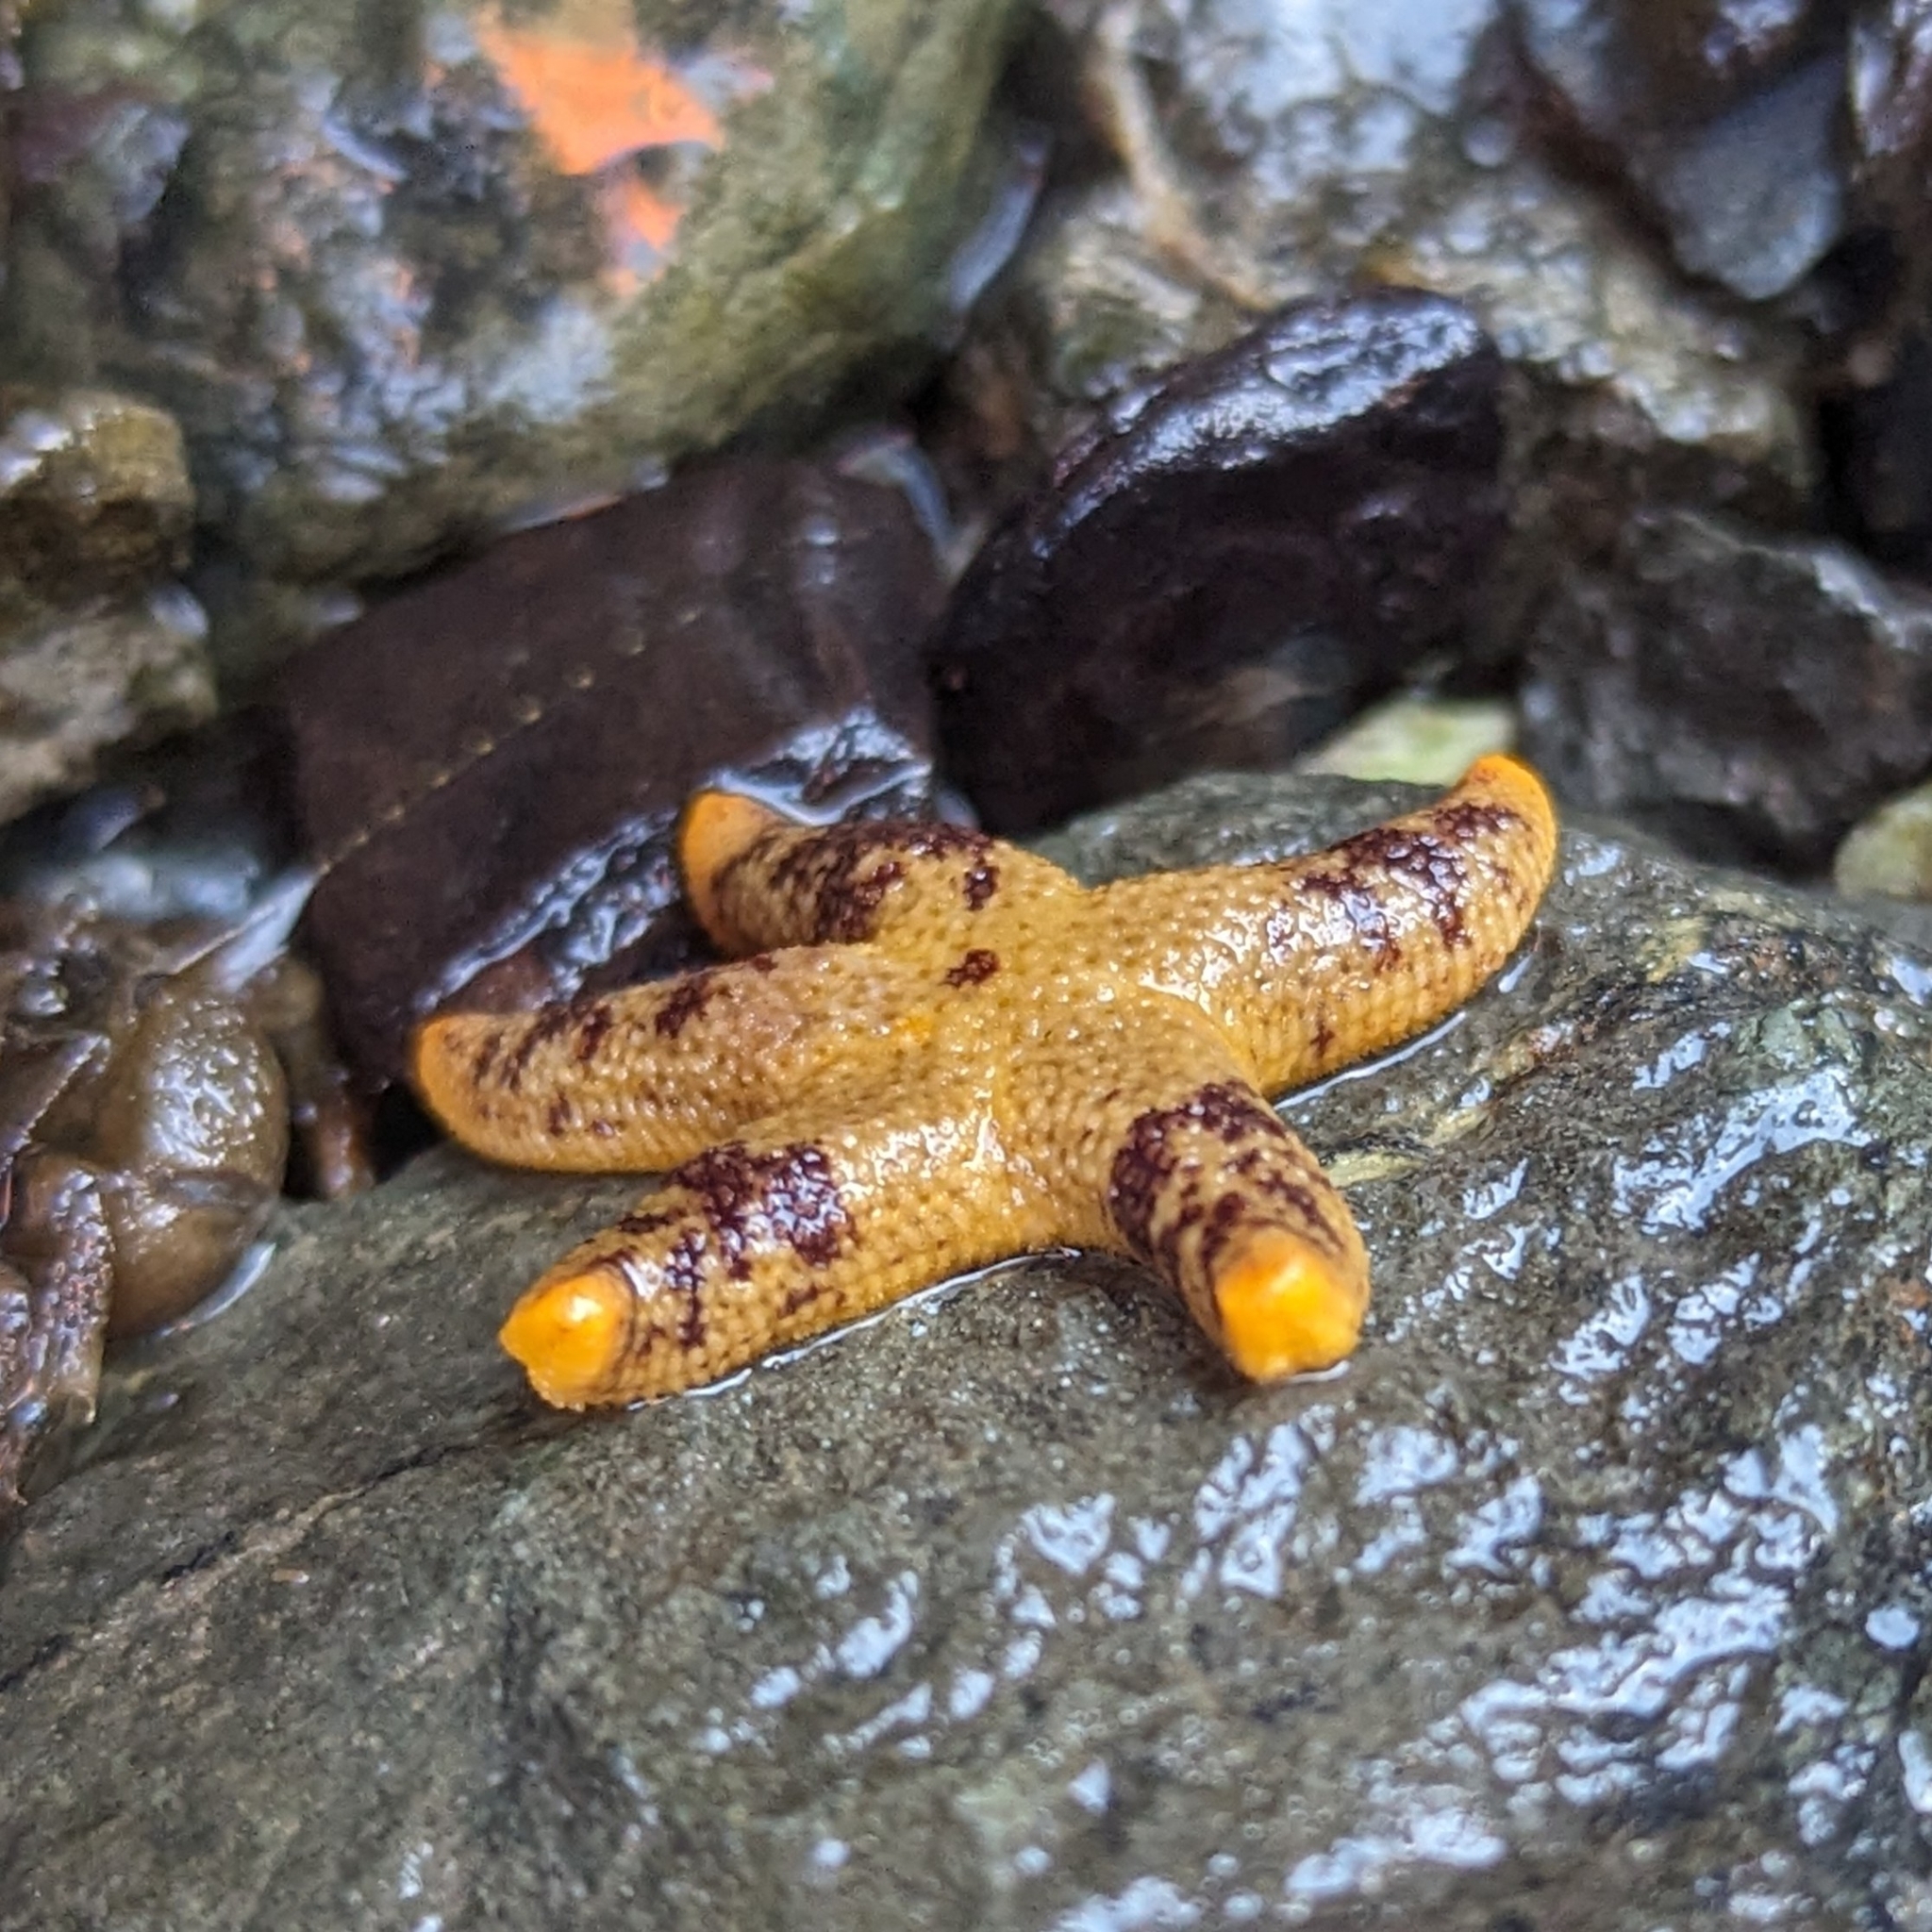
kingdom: Animalia
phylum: Echinodermata
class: Asteroidea
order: Spinulosida
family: Echinasteridae
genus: Henricia
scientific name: Henricia pumila
